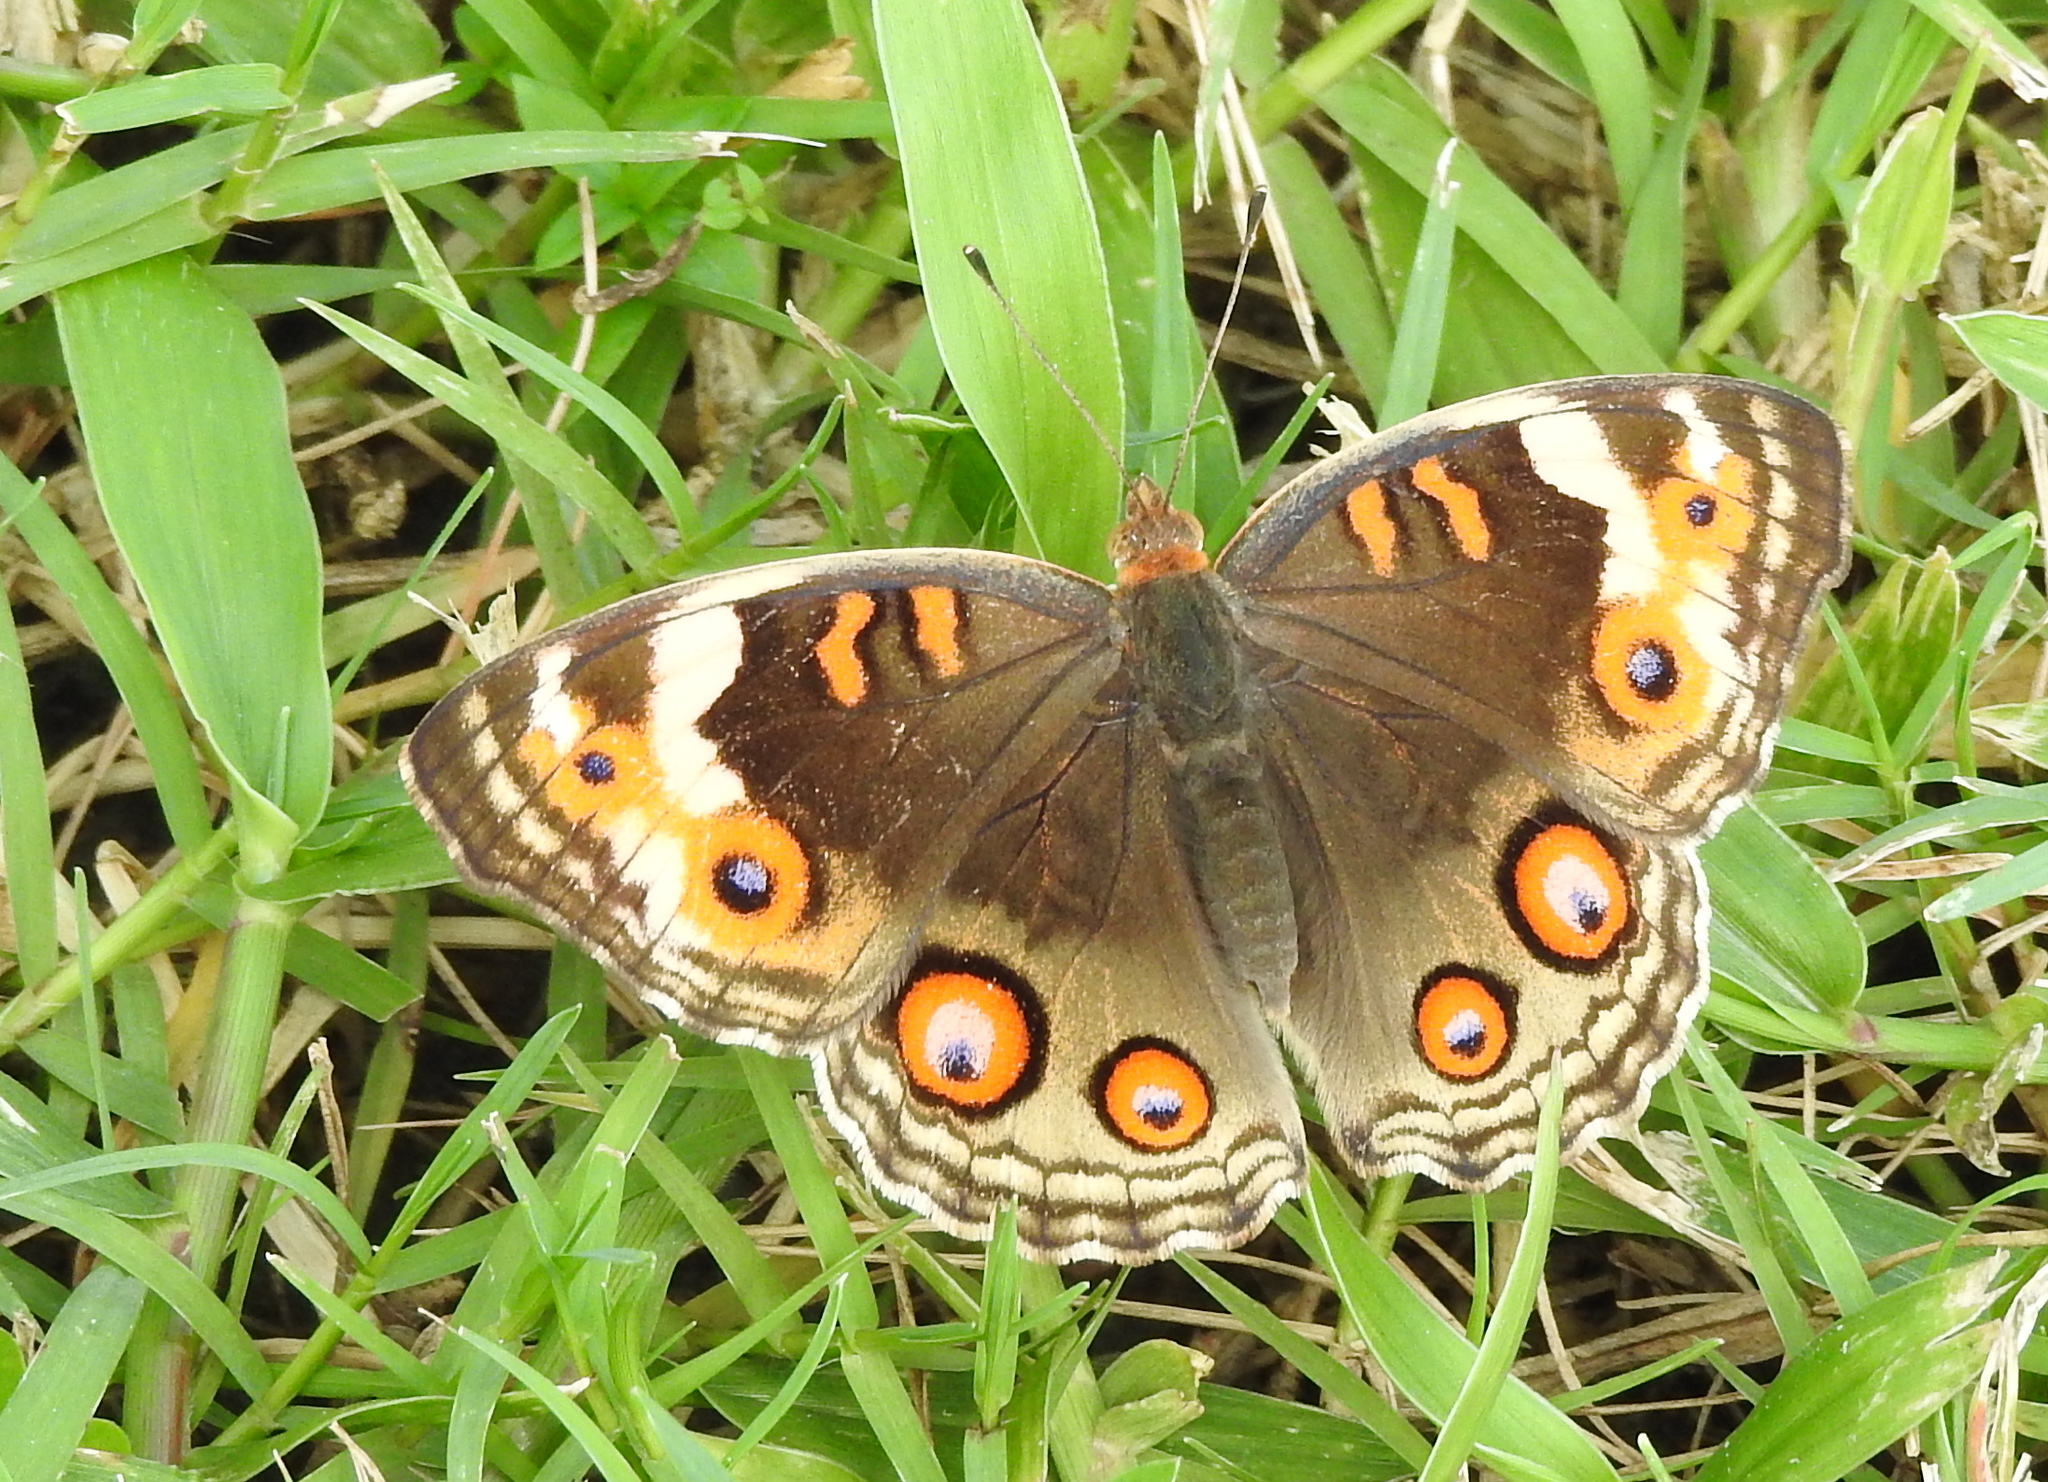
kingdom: Animalia
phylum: Arthropoda
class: Insecta
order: Lepidoptera
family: Nymphalidae
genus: Junonia
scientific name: Junonia orithya
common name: Blue pansy
